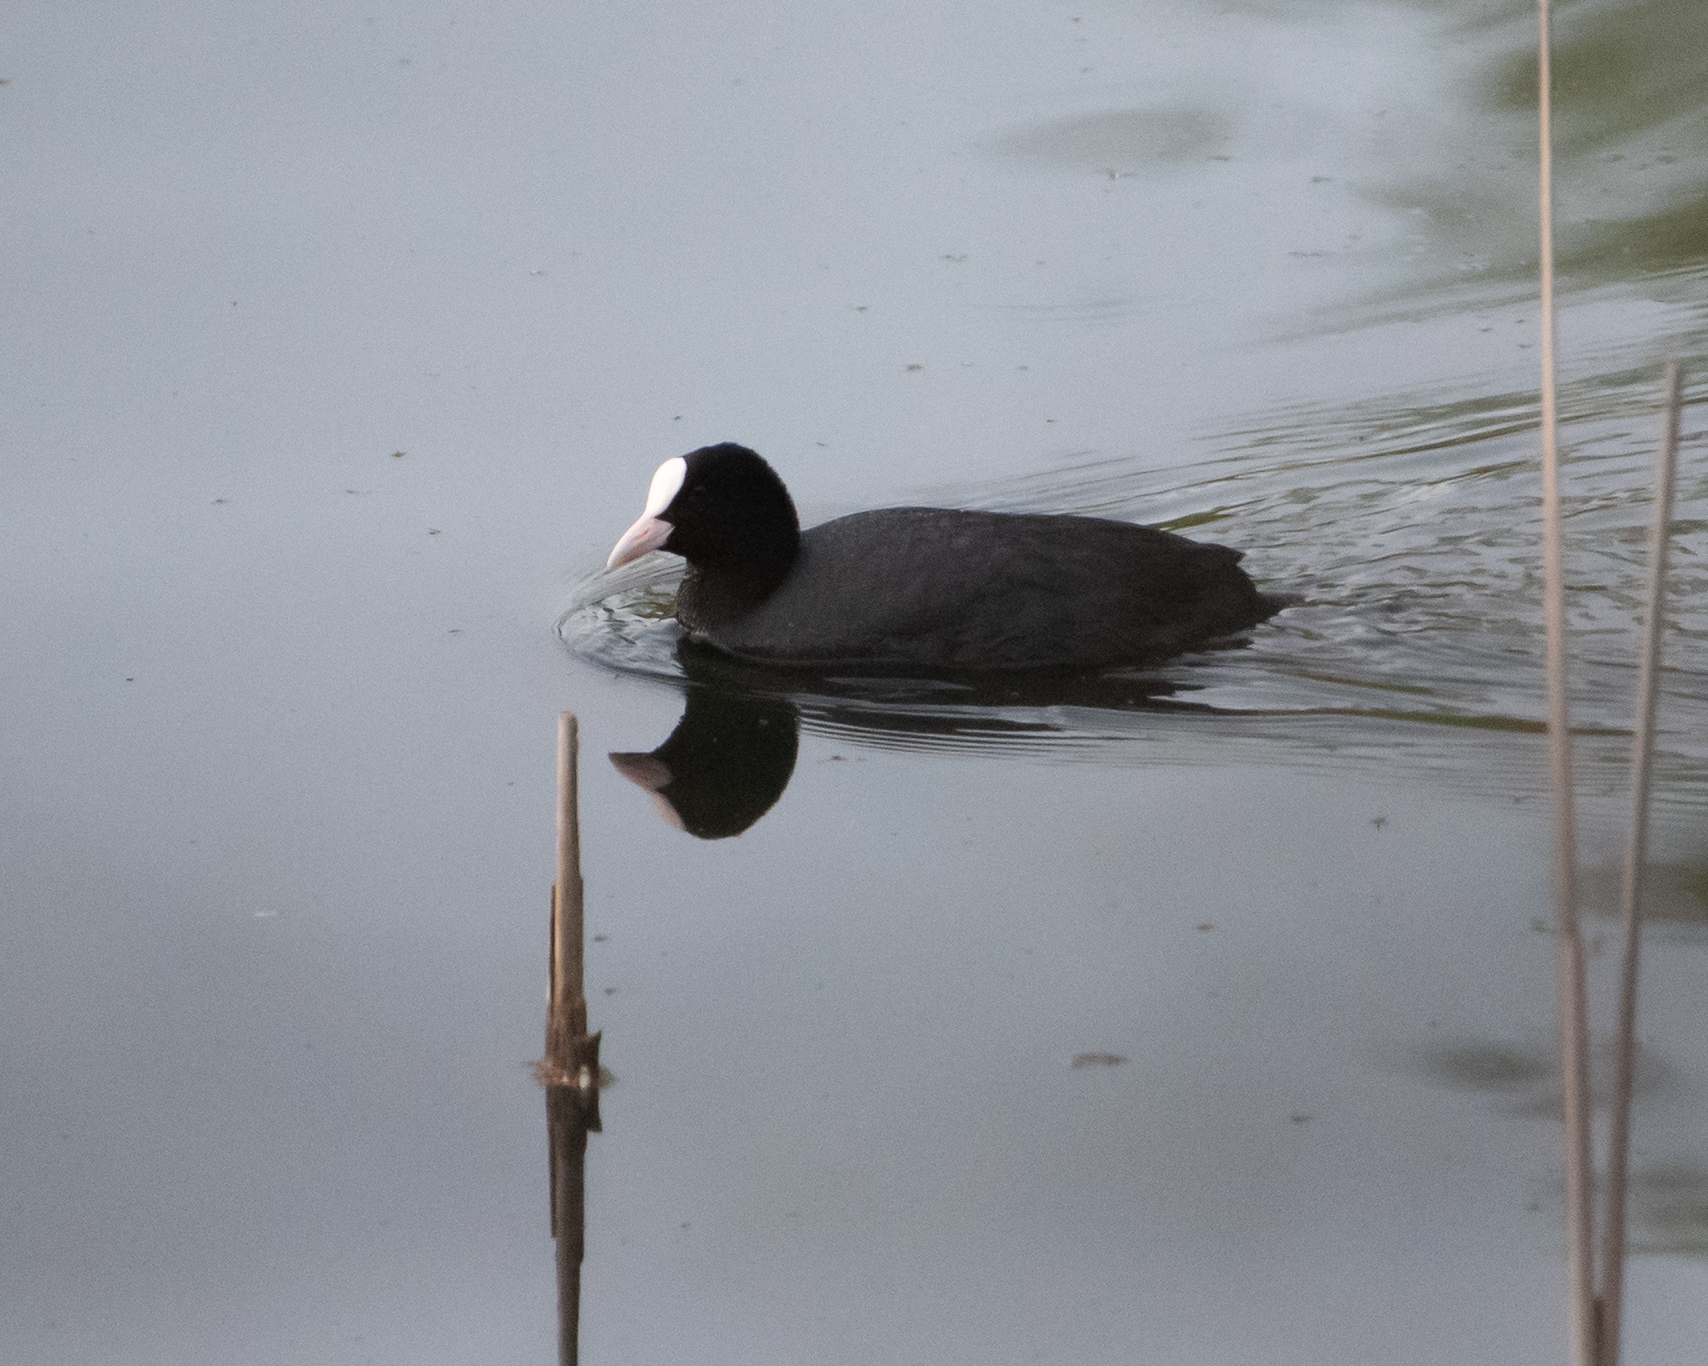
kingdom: Animalia
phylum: Chordata
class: Aves
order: Gruiformes
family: Rallidae
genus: Fulica
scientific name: Fulica atra
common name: Eurasian coot
